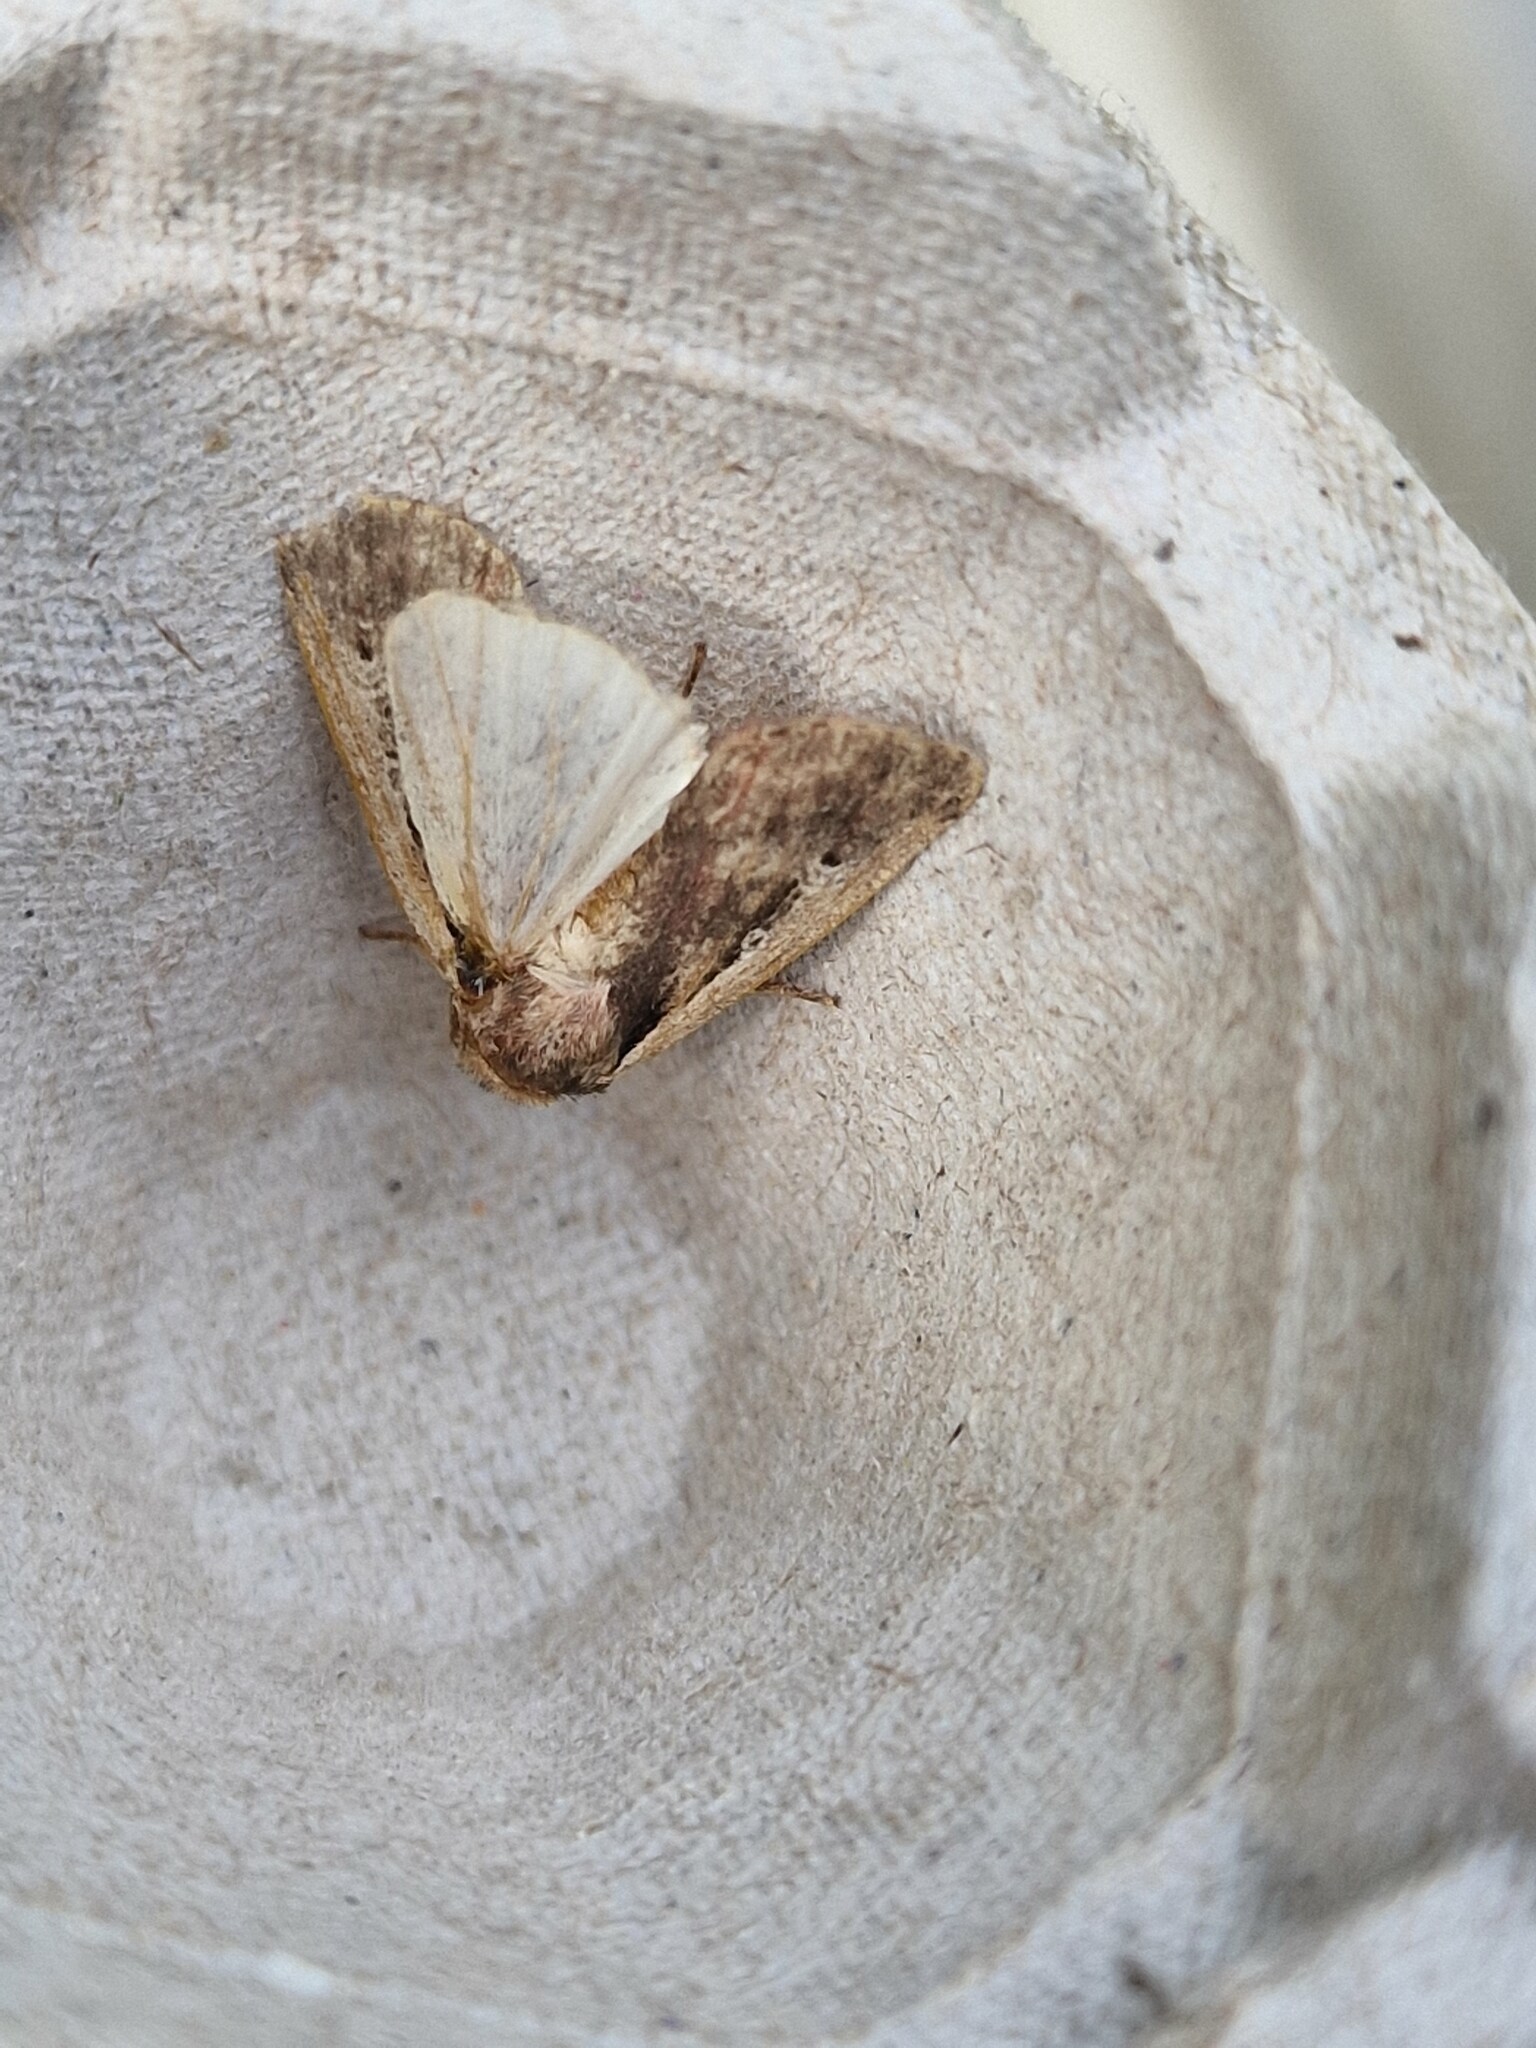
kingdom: Animalia
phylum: Arthropoda
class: Insecta
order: Lepidoptera
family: Noctuidae
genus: Ochropleura
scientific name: Ochropleura plecta
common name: Flame shoulder
